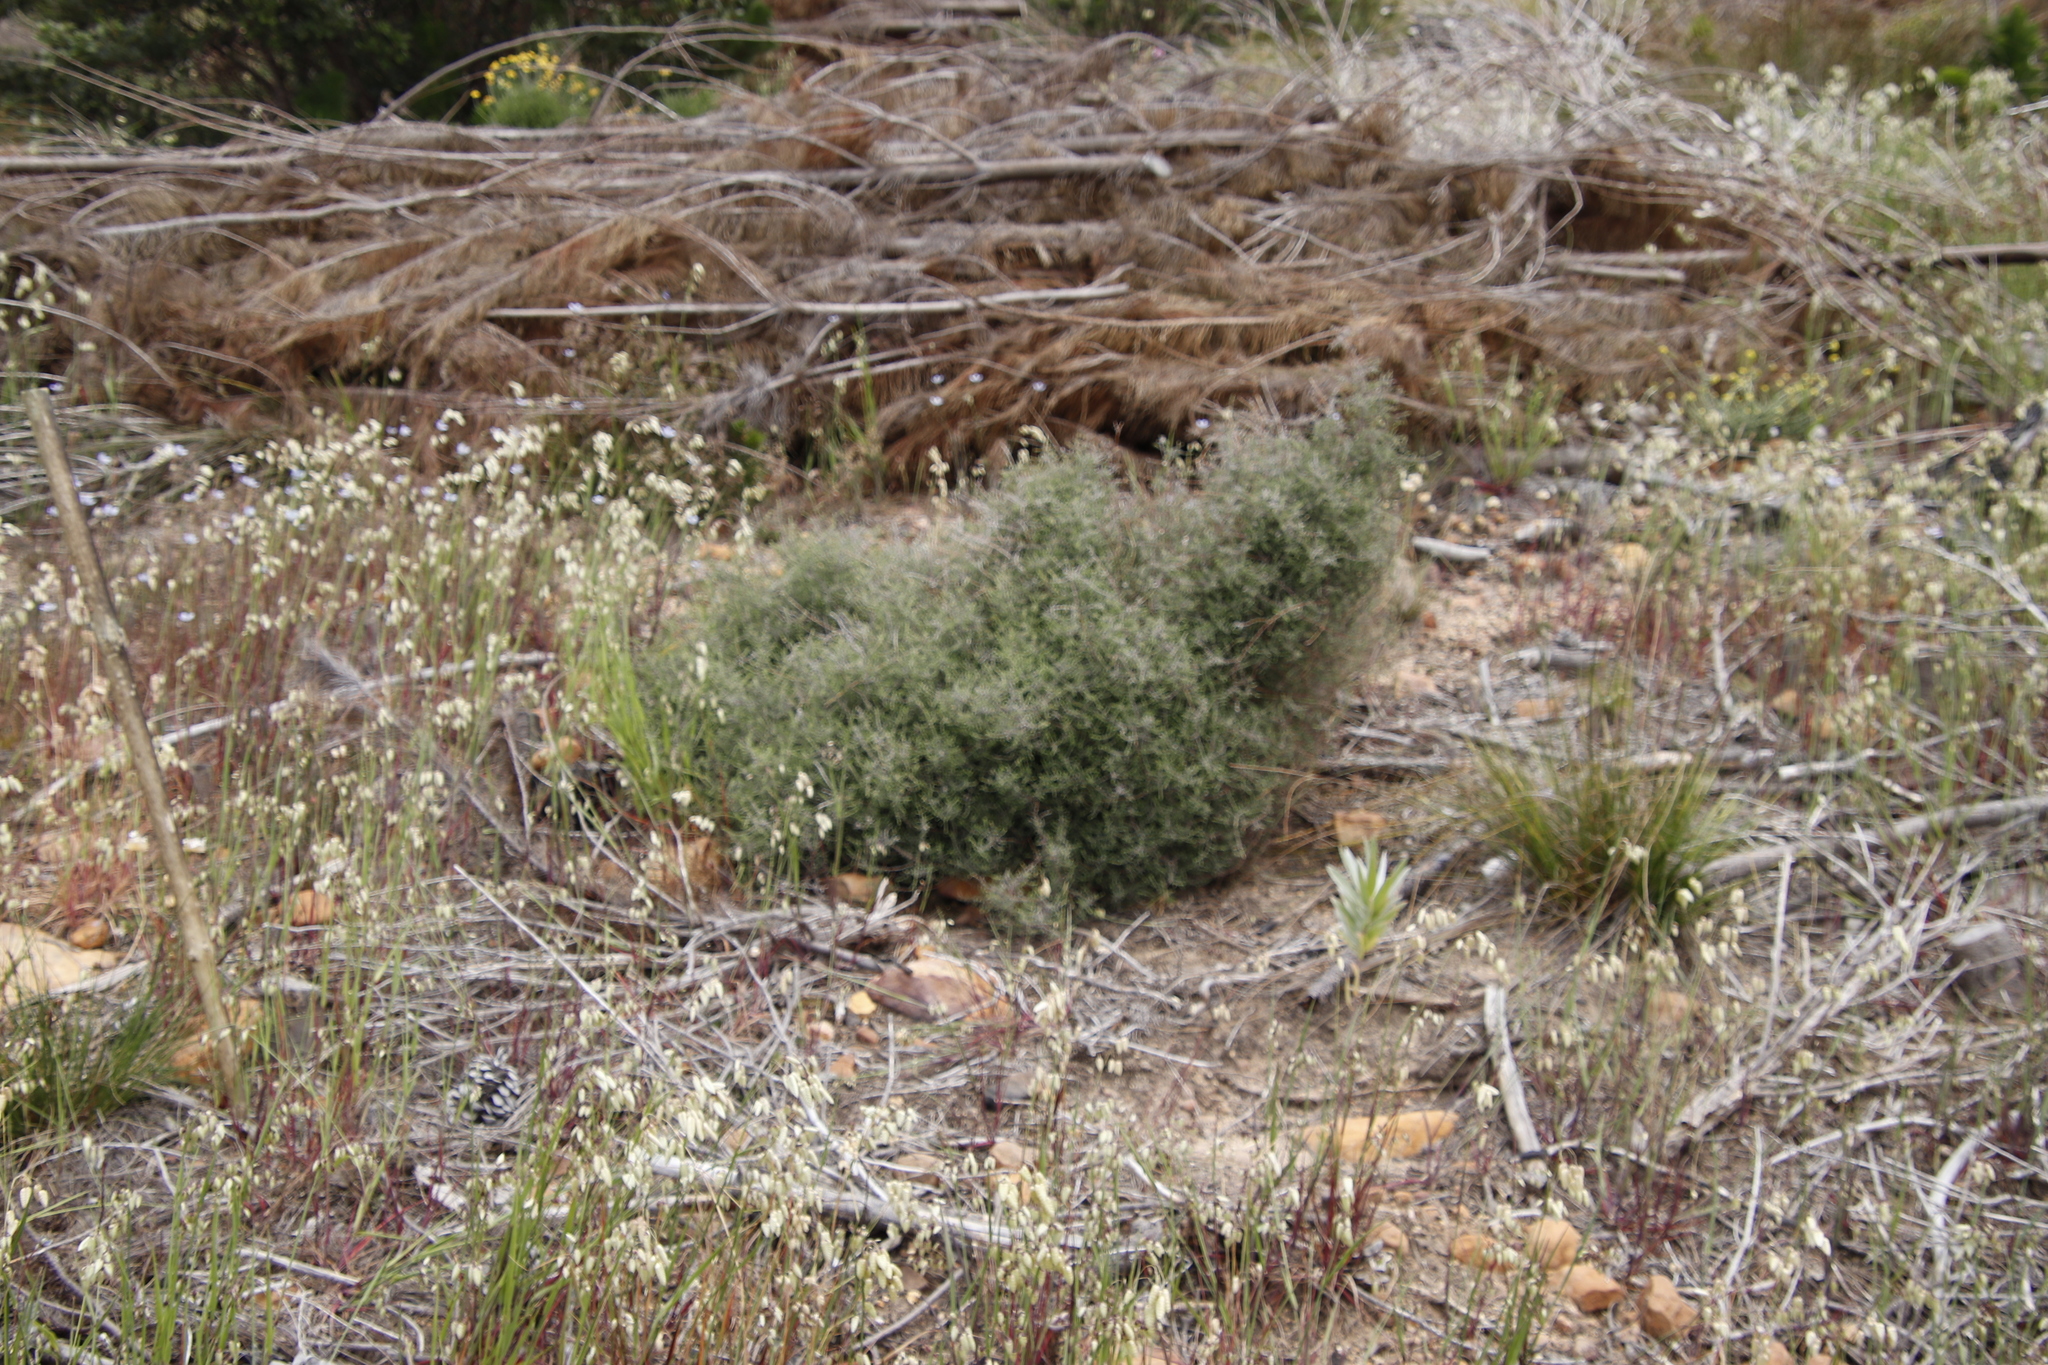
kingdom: Plantae
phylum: Tracheophyta
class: Magnoliopsida
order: Asterales
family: Asteraceae
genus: Myrovernix
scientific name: Myrovernix scaber
